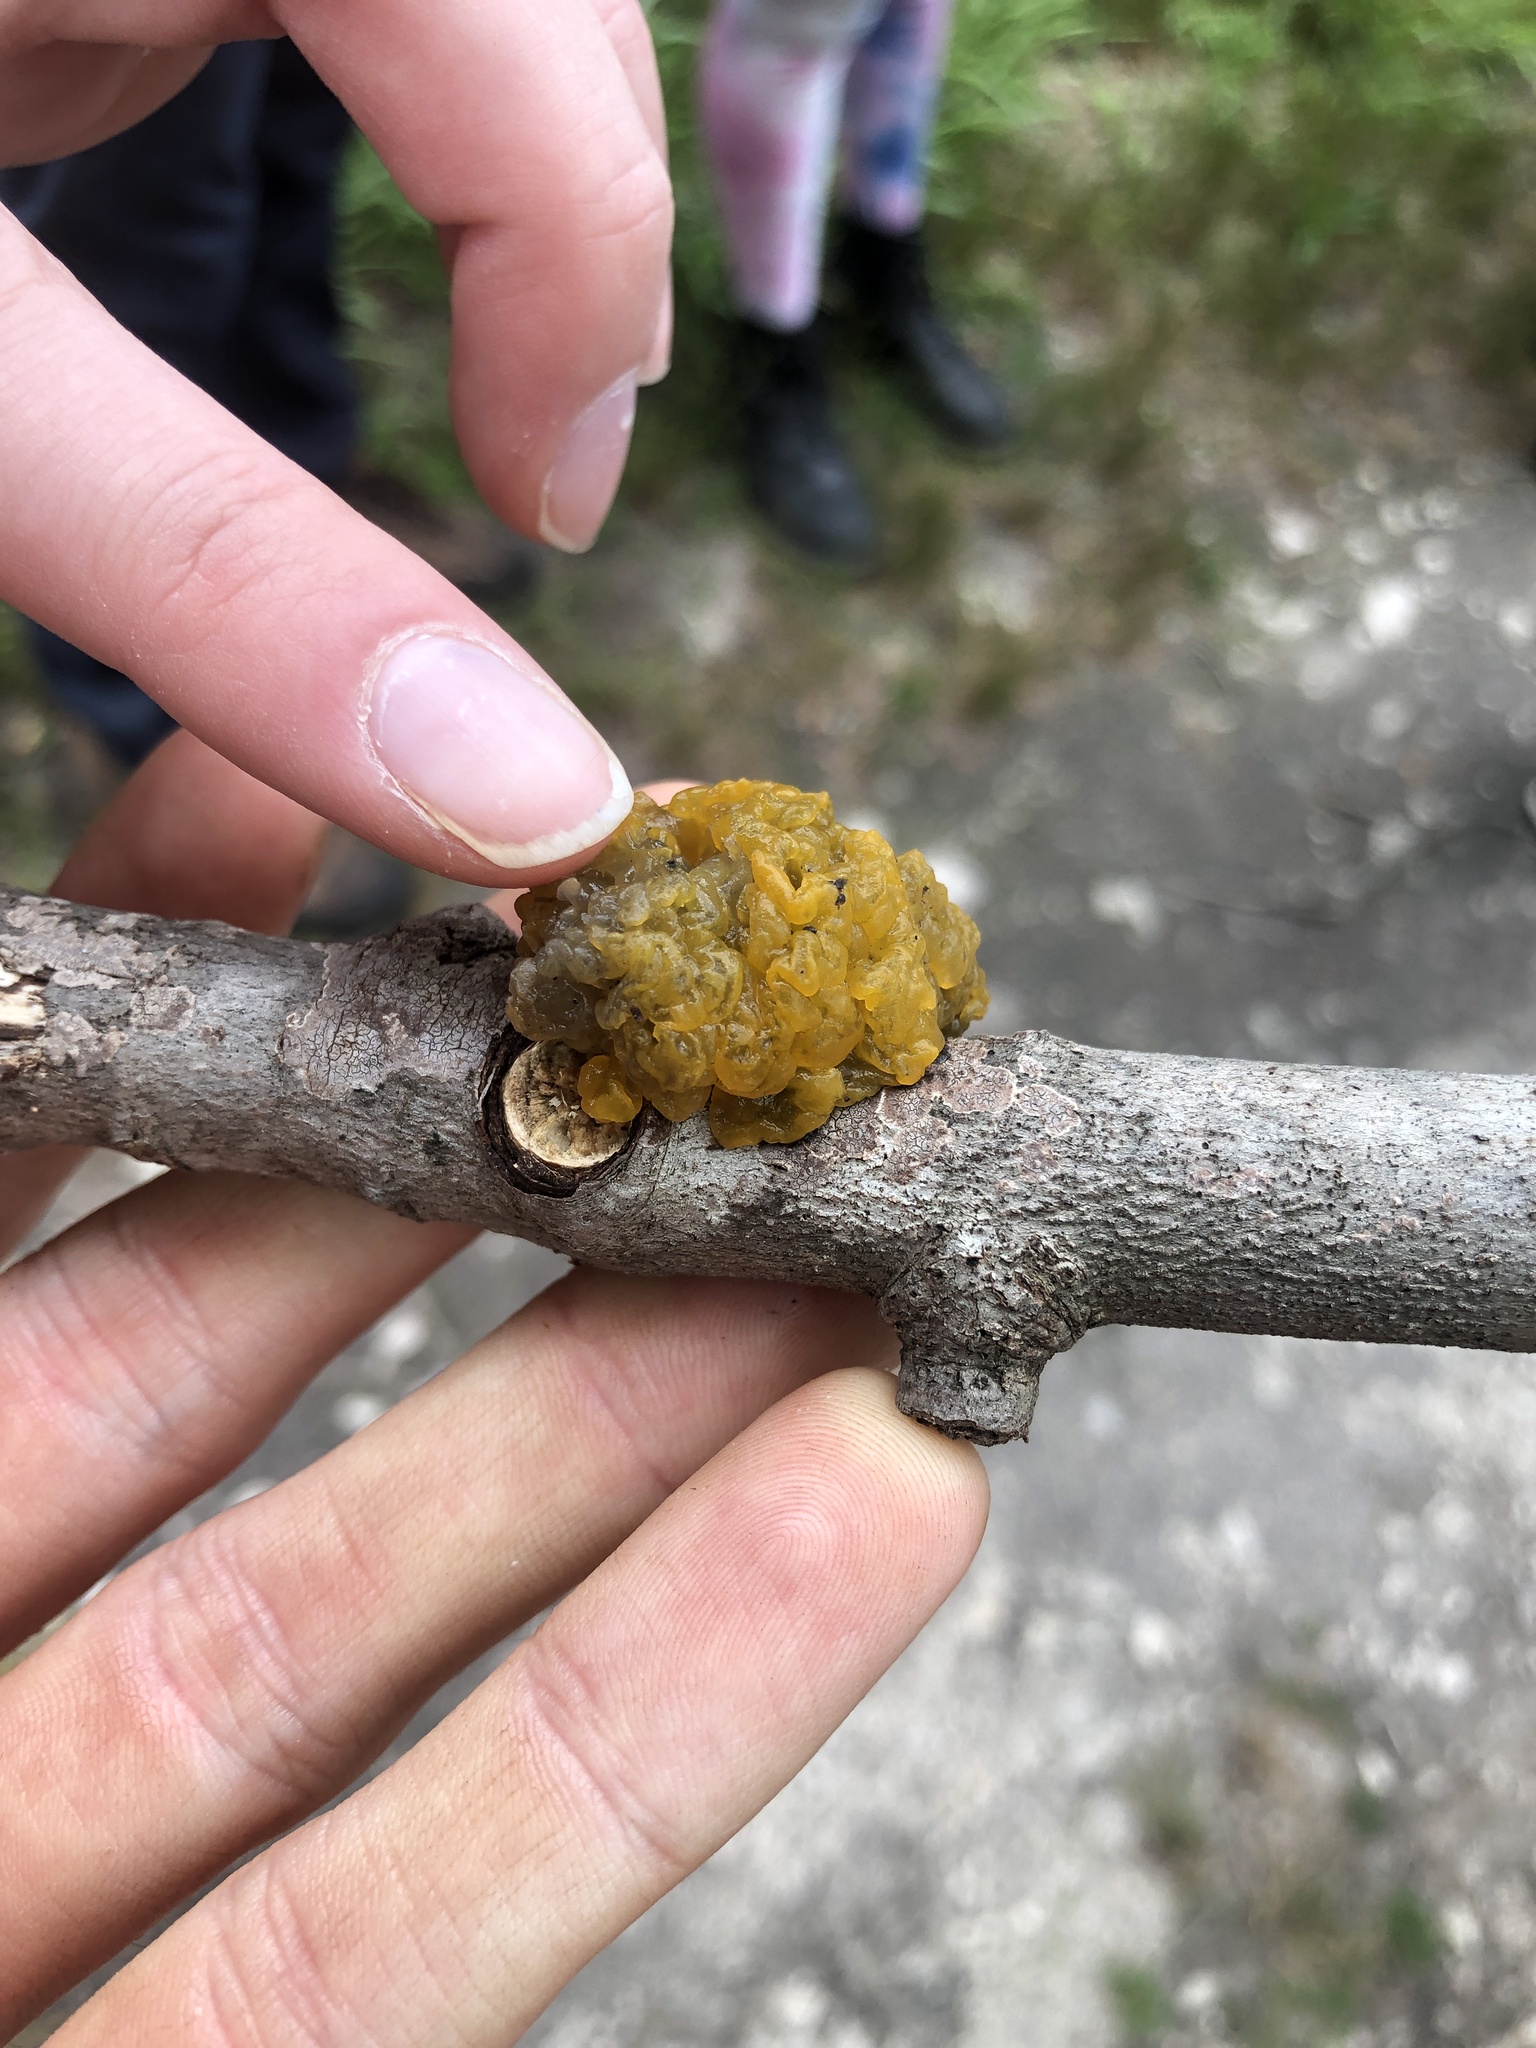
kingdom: Fungi
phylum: Basidiomycota
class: Tremellomycetes
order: Tremellales
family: Tremellaceae
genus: Tremella
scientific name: Tremella mesenterica
